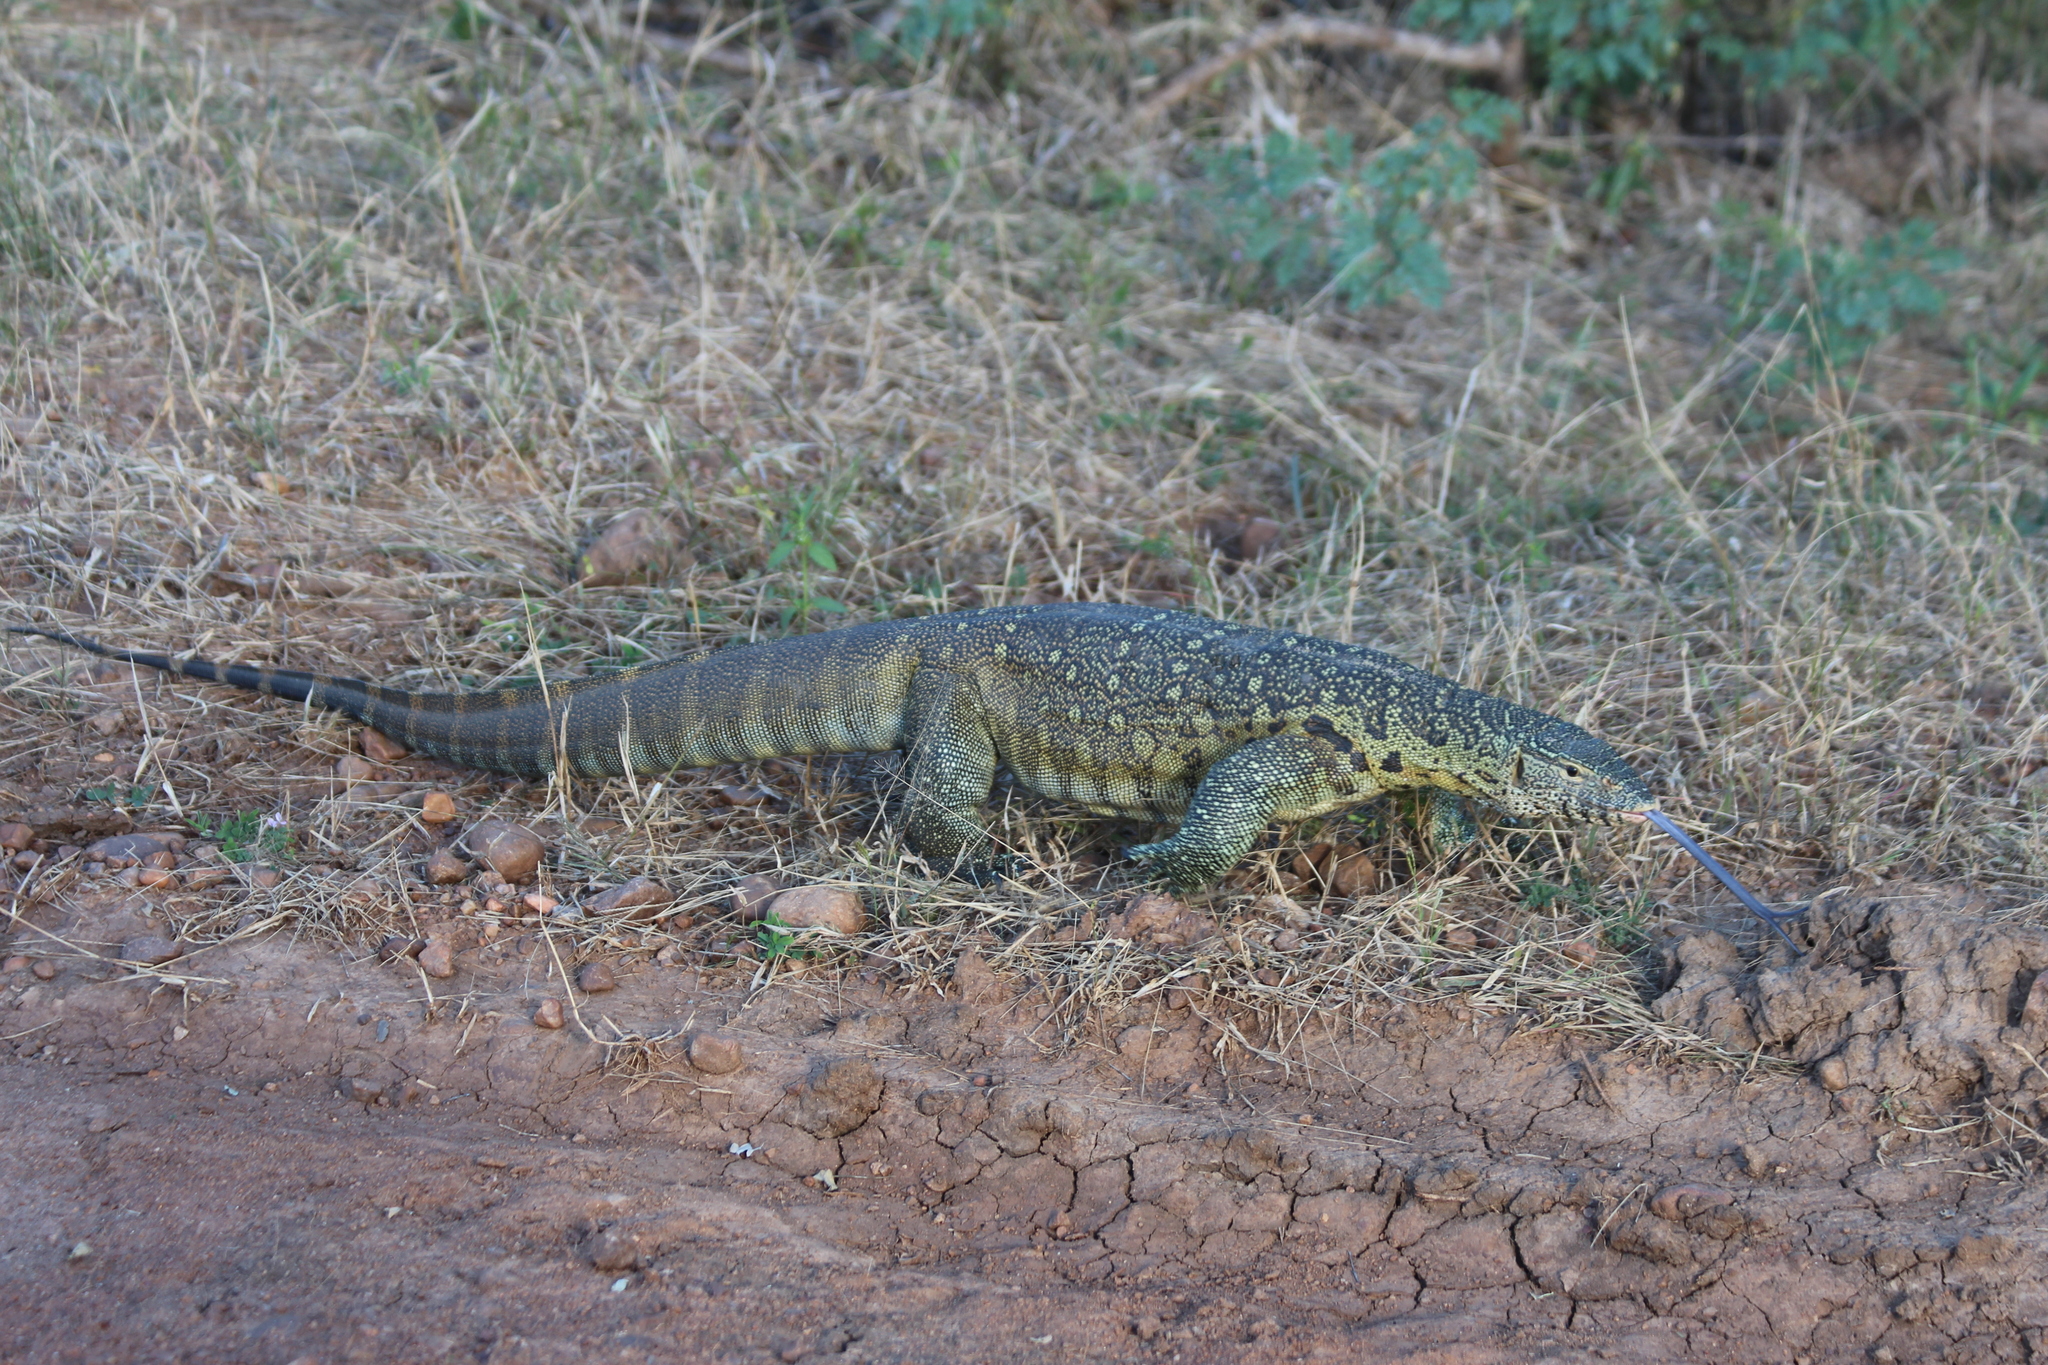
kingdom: Animalia
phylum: Chordata
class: Squamata
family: Varanidae
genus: Varanus
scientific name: Varanus niloticus
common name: Nile monitor
